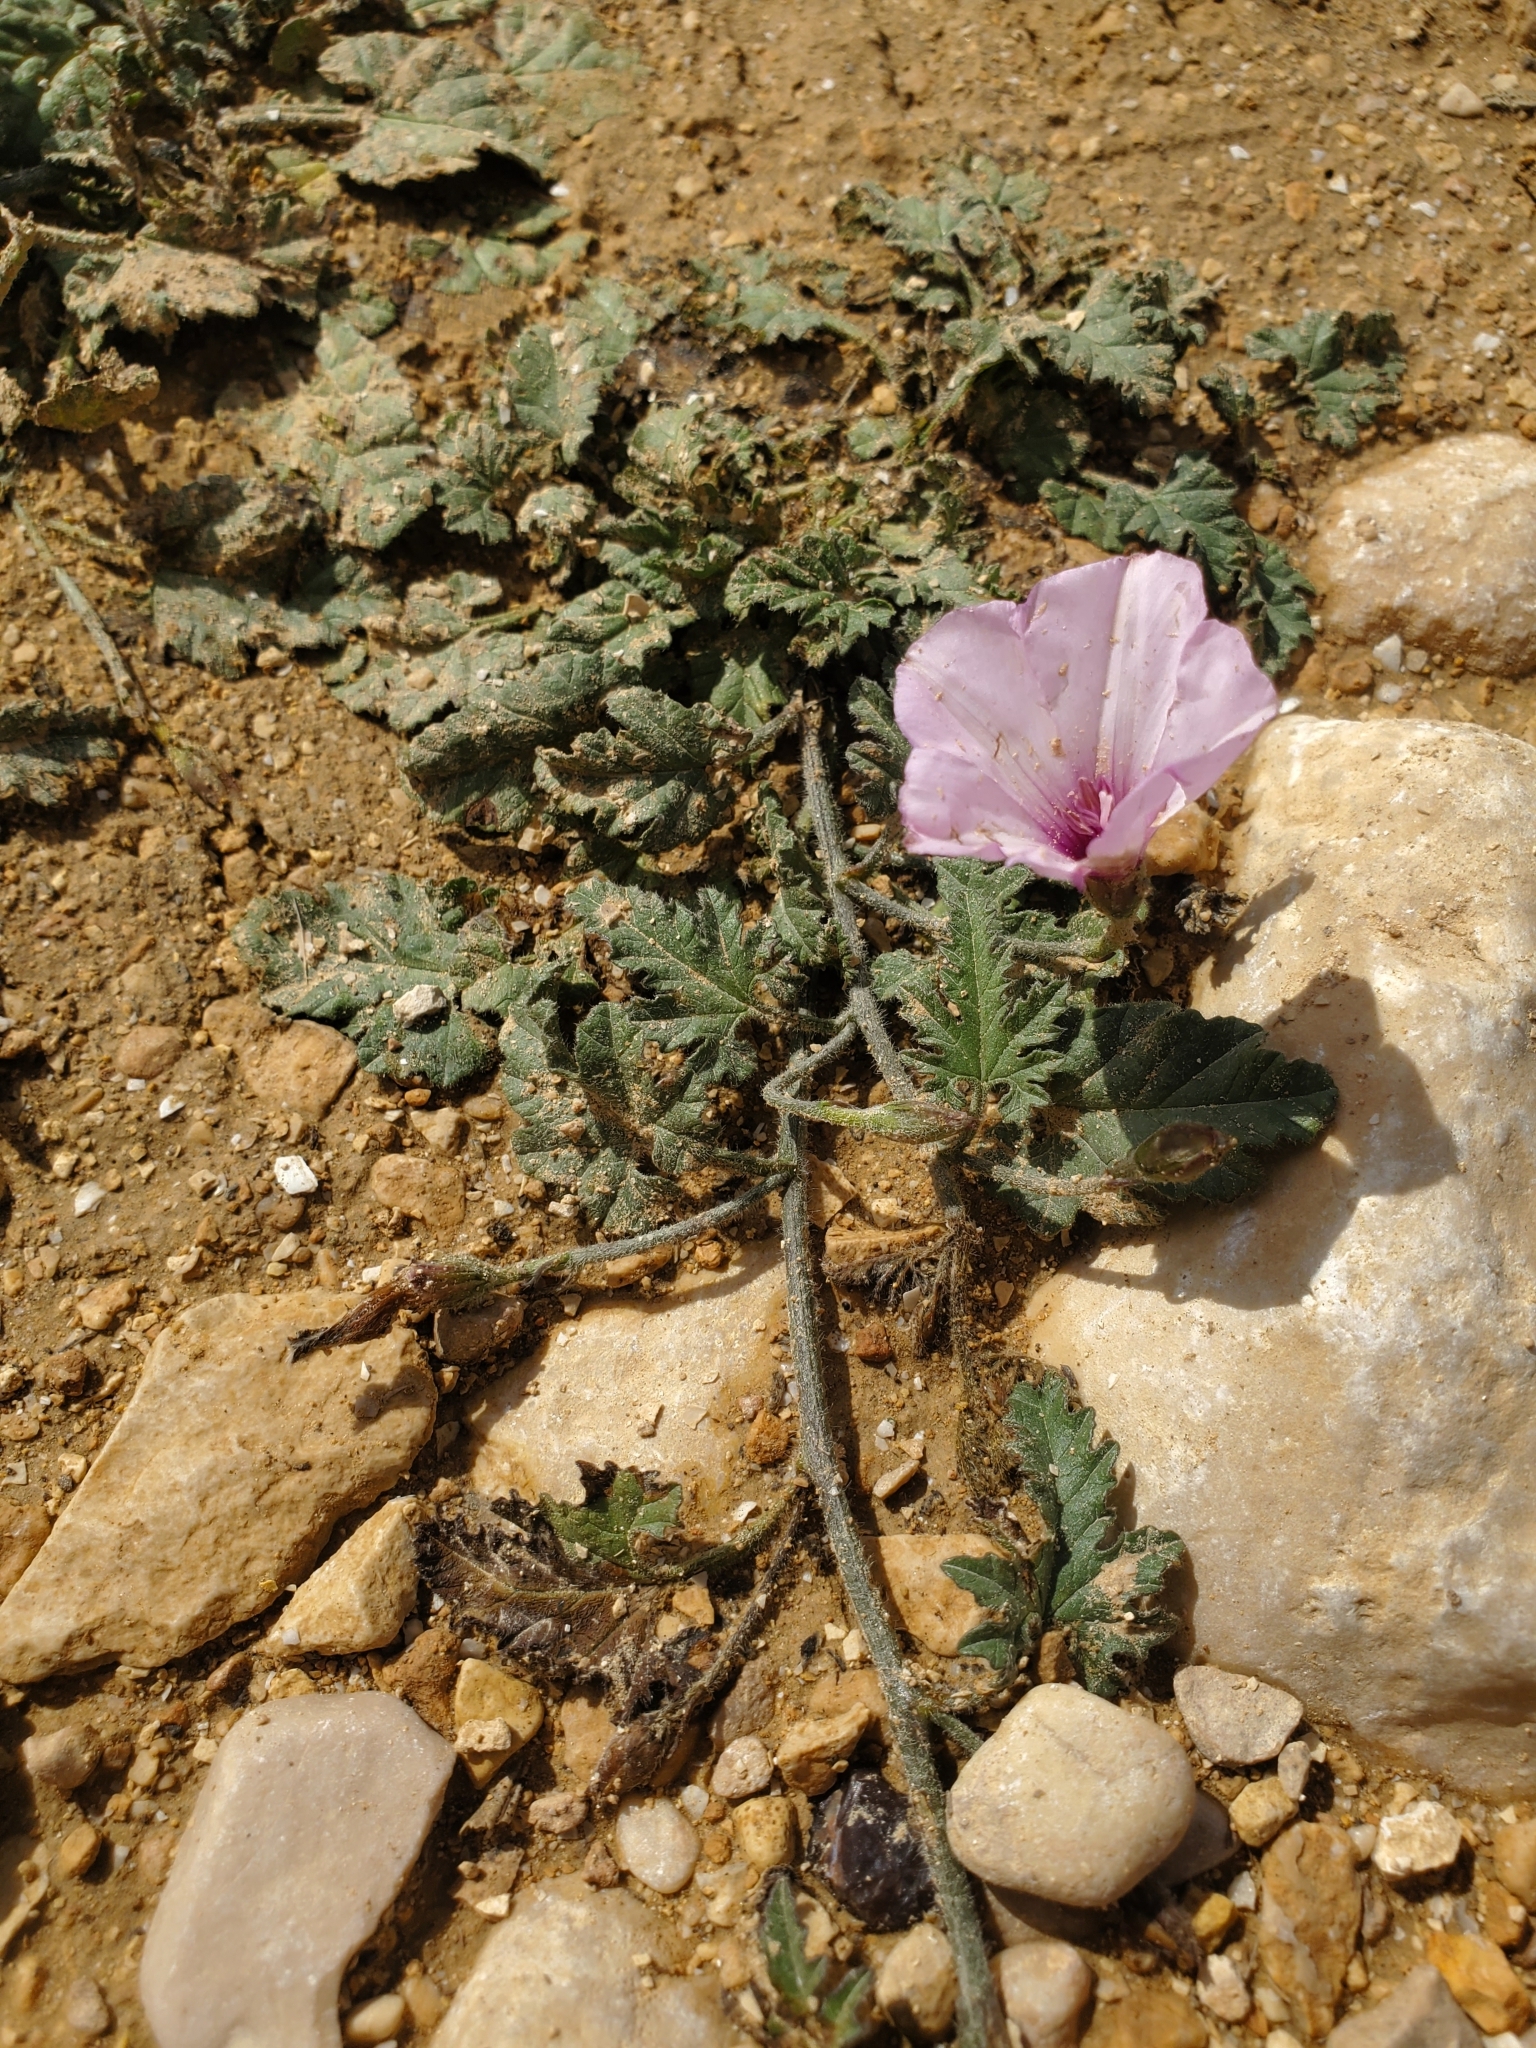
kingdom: Plantae
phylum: Tracheophyta
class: Magnoliopsida
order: Solanales
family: Convolvulaceae
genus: Convolvulus
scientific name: Convolvulus althaeoides
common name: Mallow bindweed
